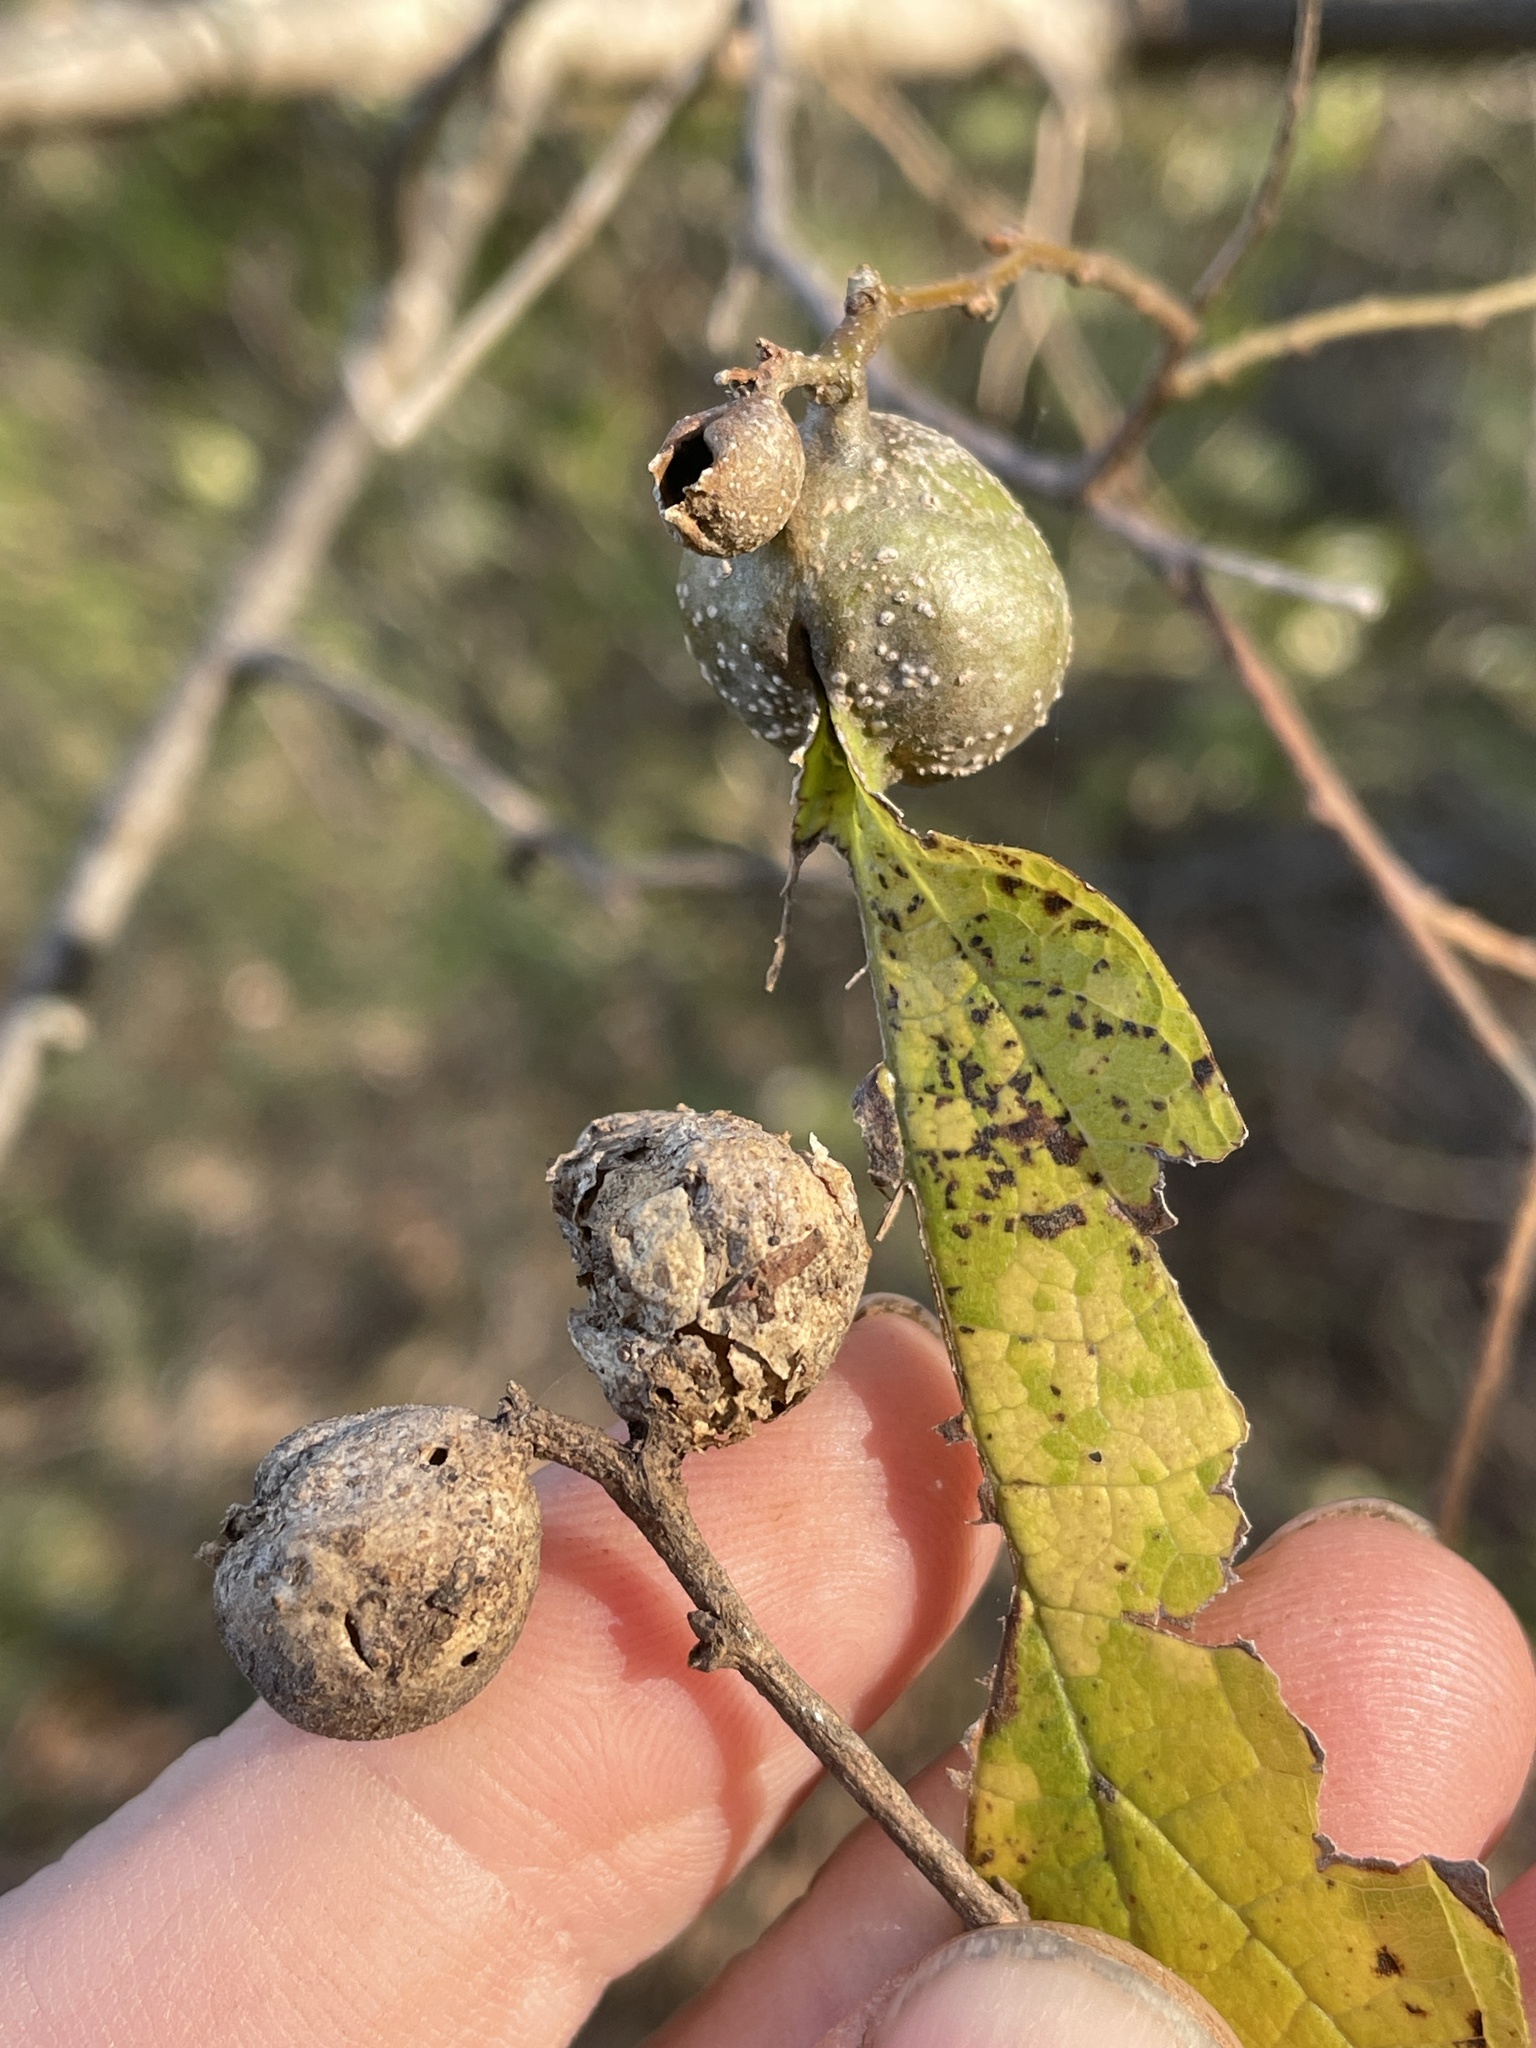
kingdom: Animalia
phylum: Arthropoda
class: Insecta
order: Hemiptera
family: Aphalaridae
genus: Pachypsylla
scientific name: Pachypsylla venusta
